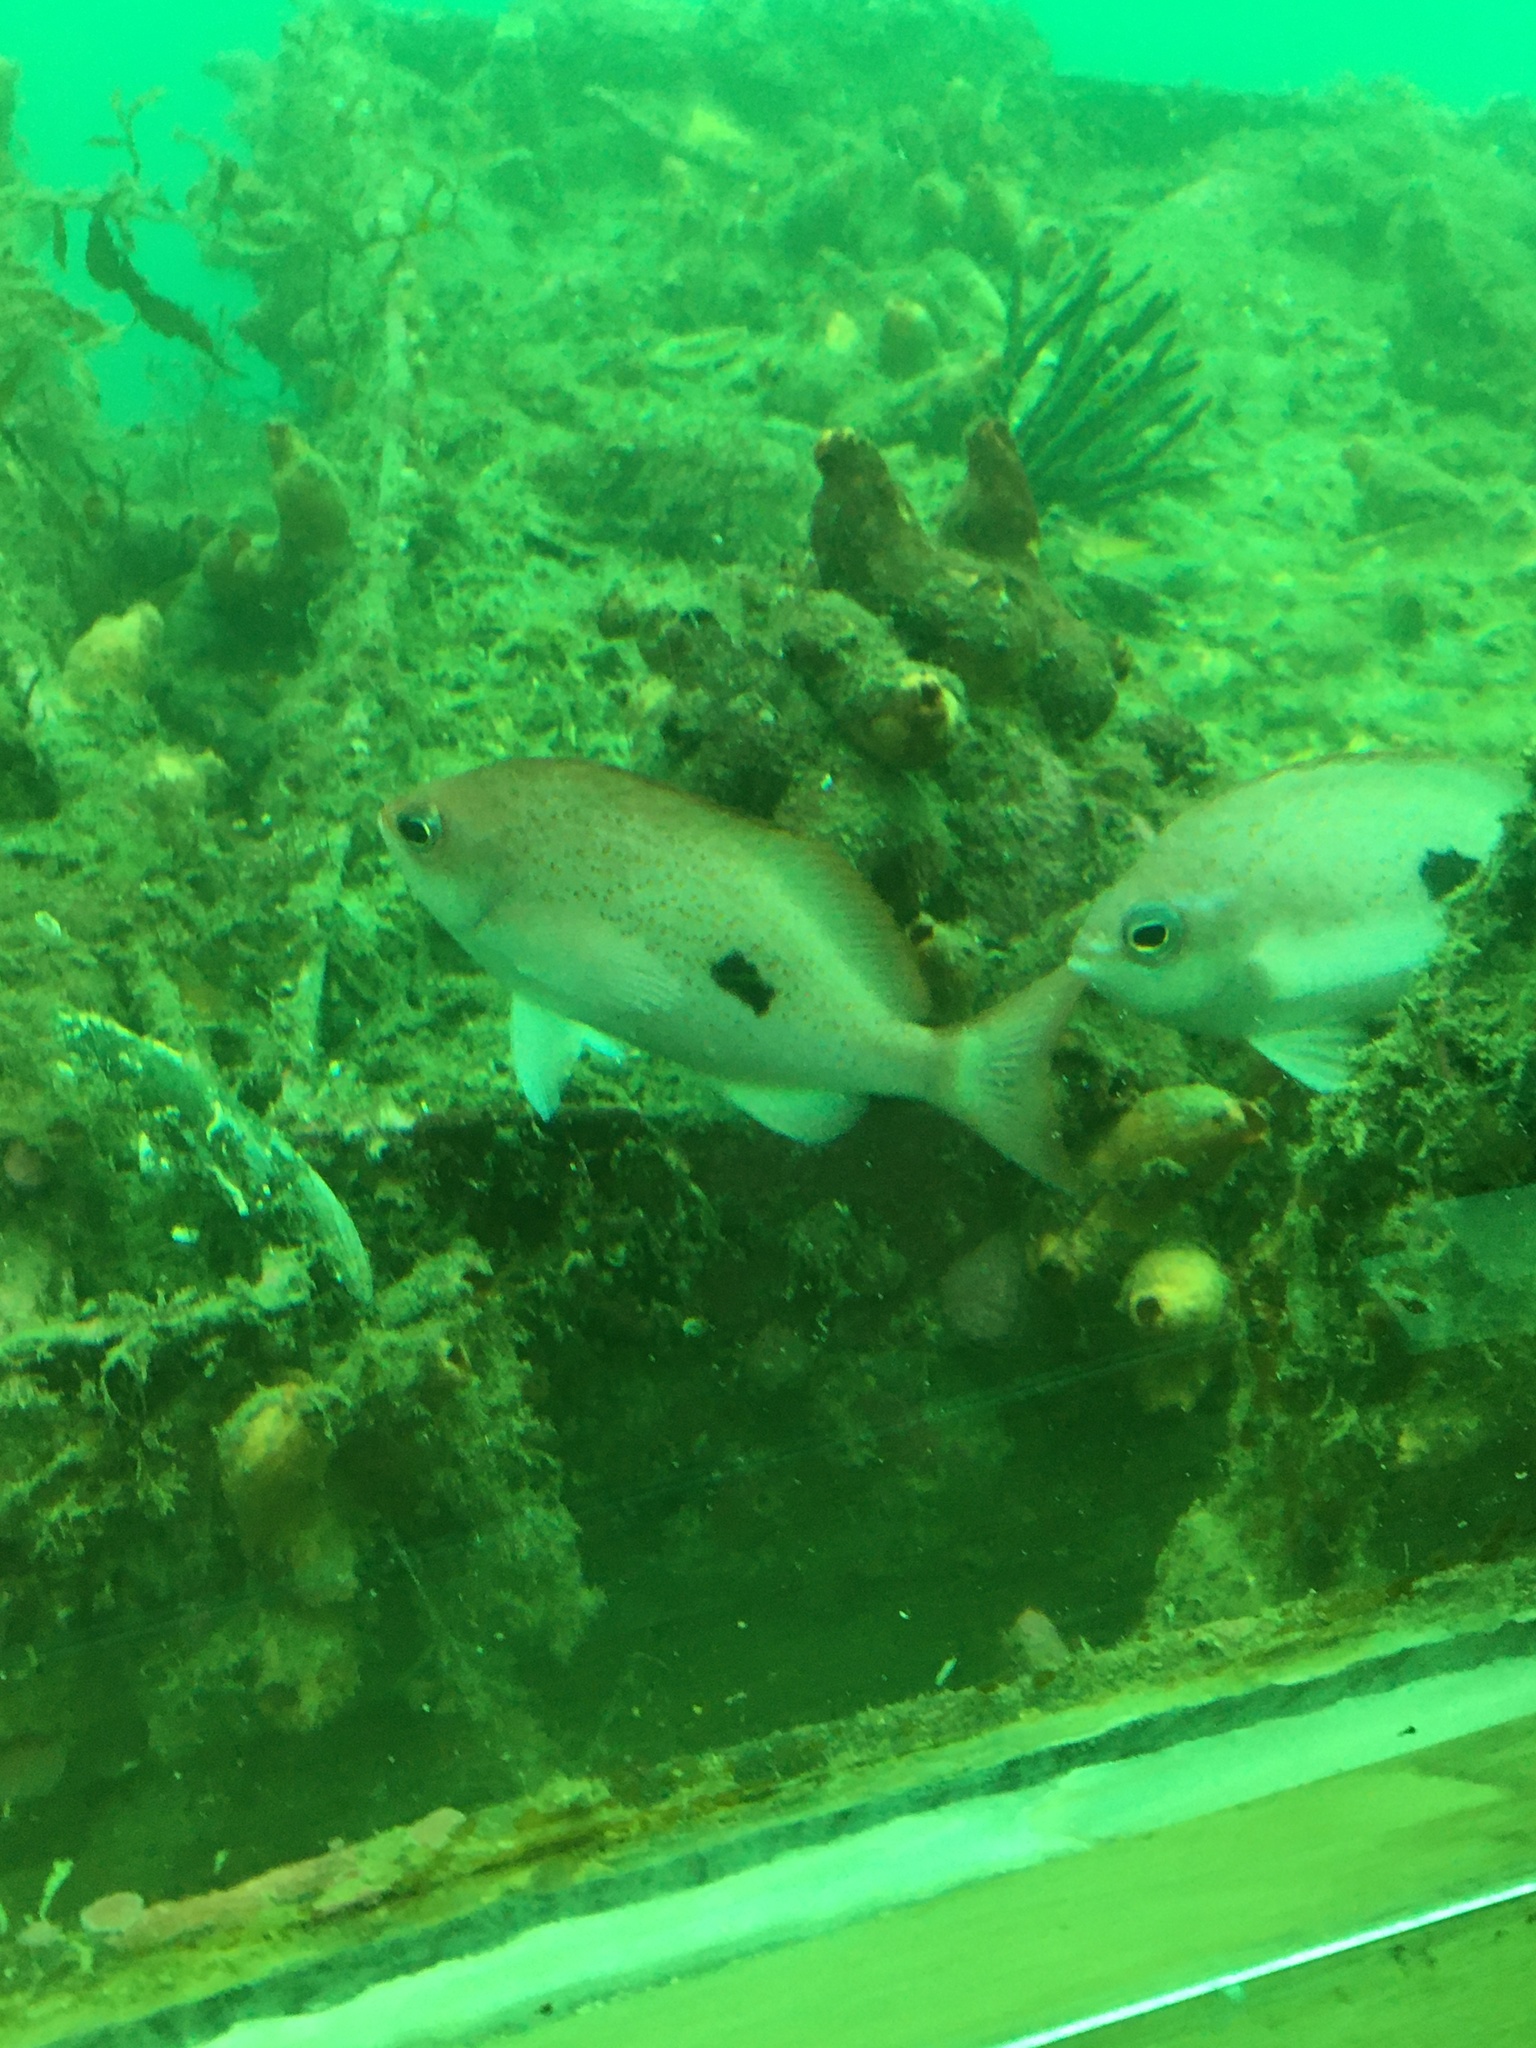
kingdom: Animalia
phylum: Chordata
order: Perciformes
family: Serranidae
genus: Caesioperca
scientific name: Caesioperca lepidoptera
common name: Butterfly perch
